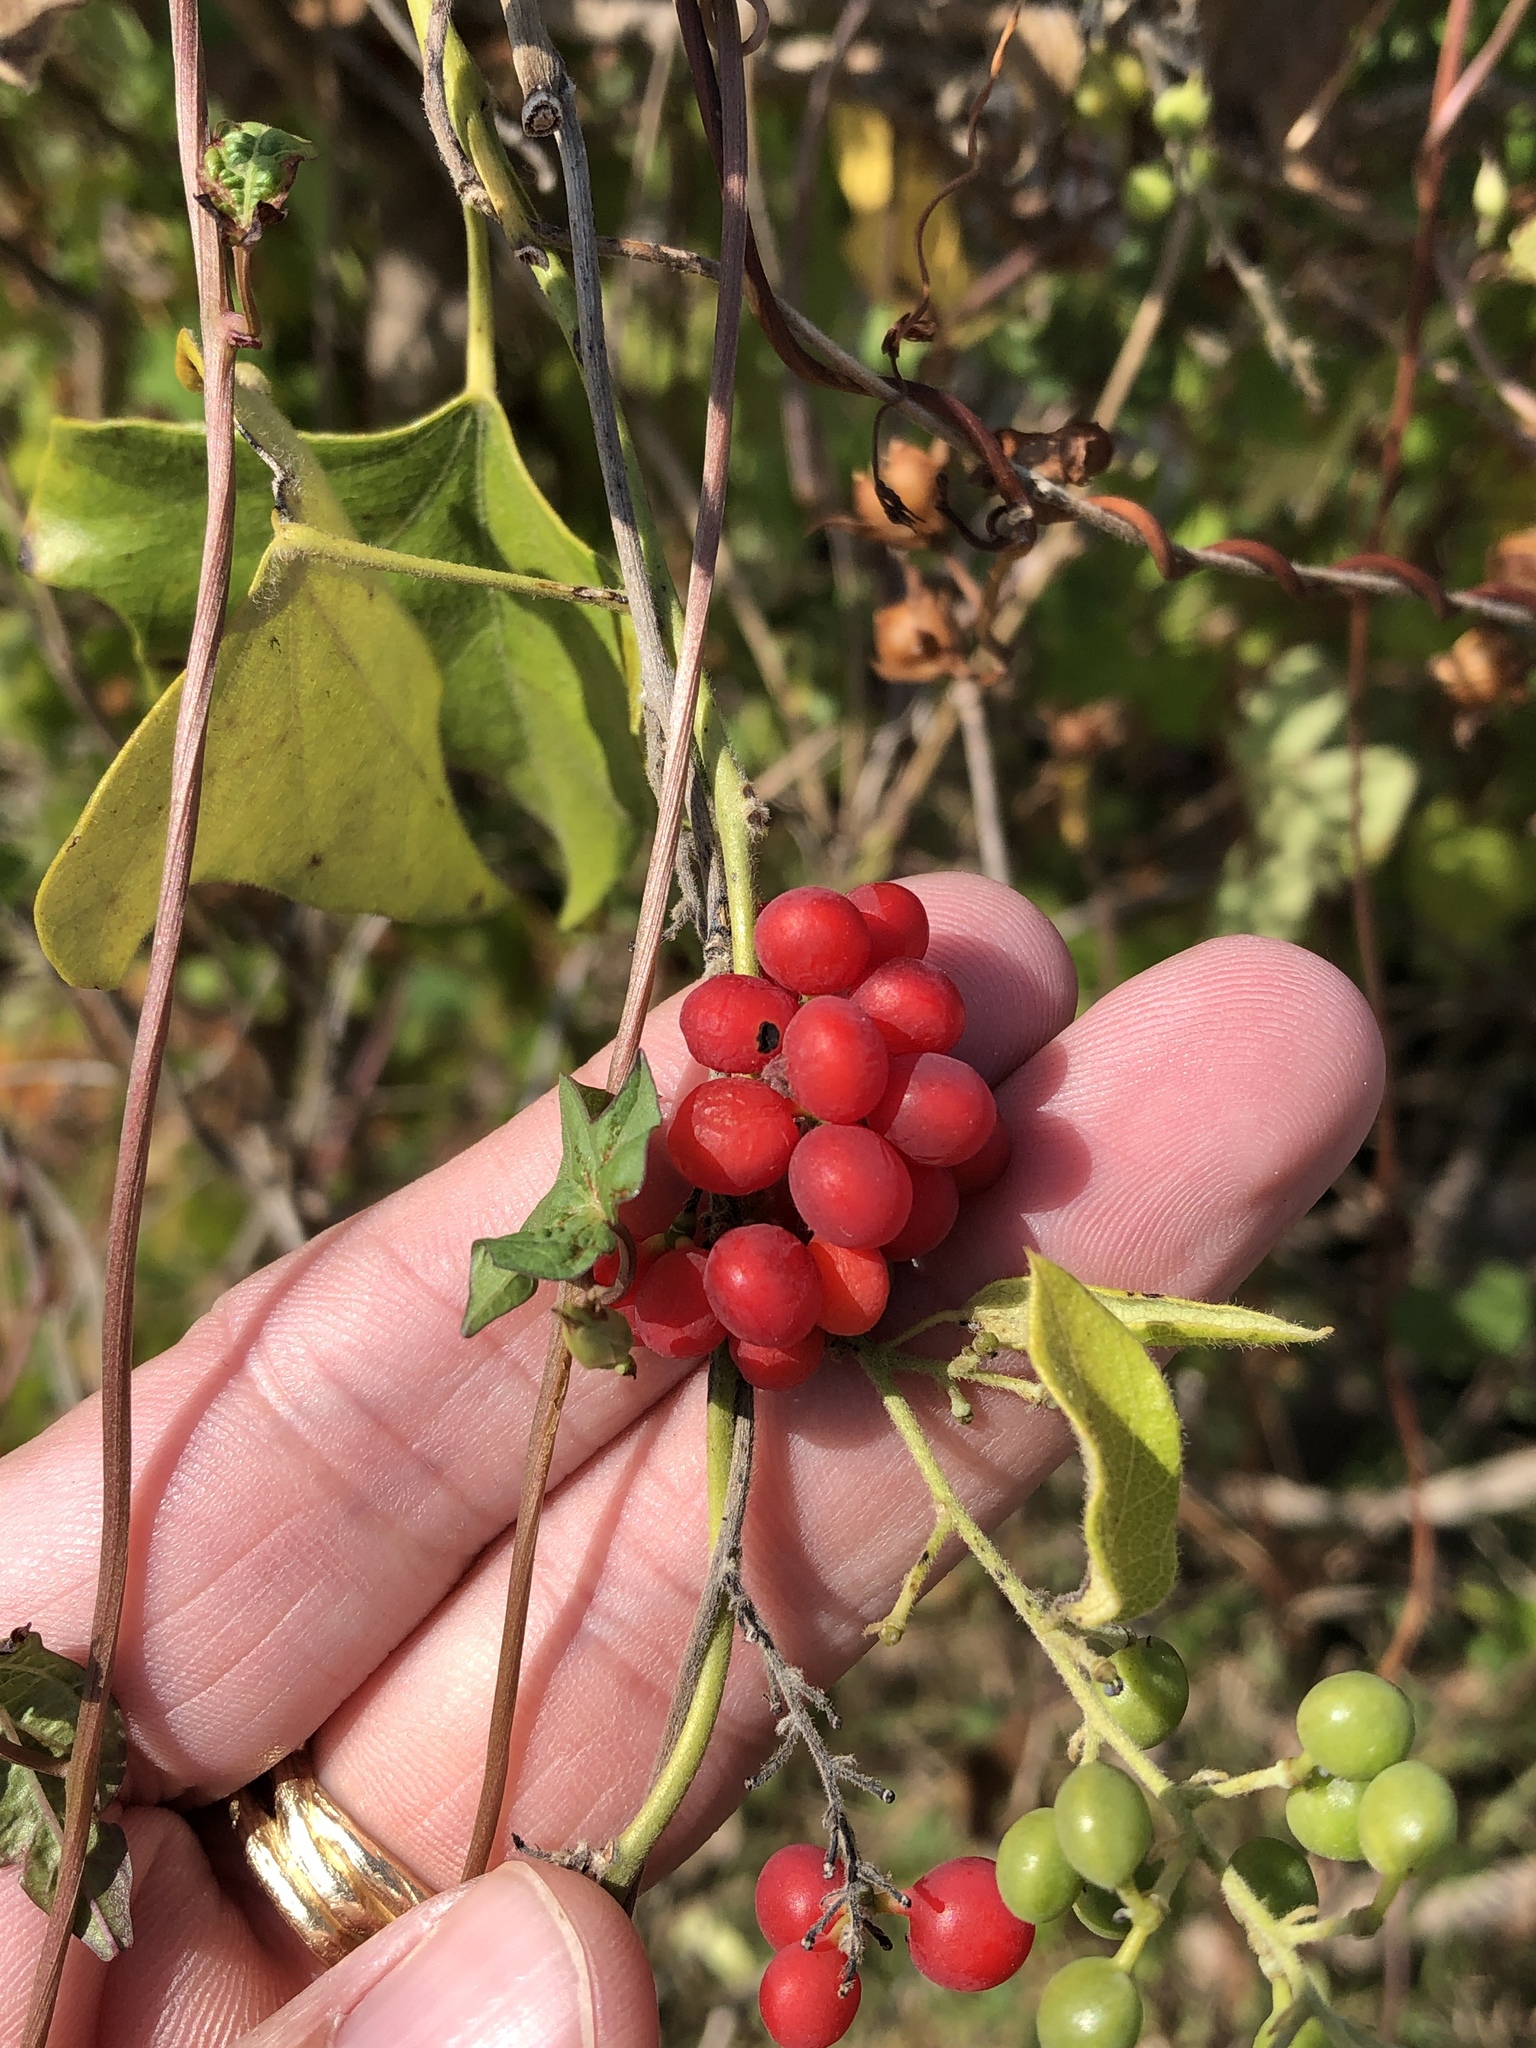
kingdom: Plantae
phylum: Tracheophyta
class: Magnoliopsida
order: Ranunculales
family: Menispermaceae
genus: Cocculus
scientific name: Cocculus carolinus
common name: Carolina moonseed
